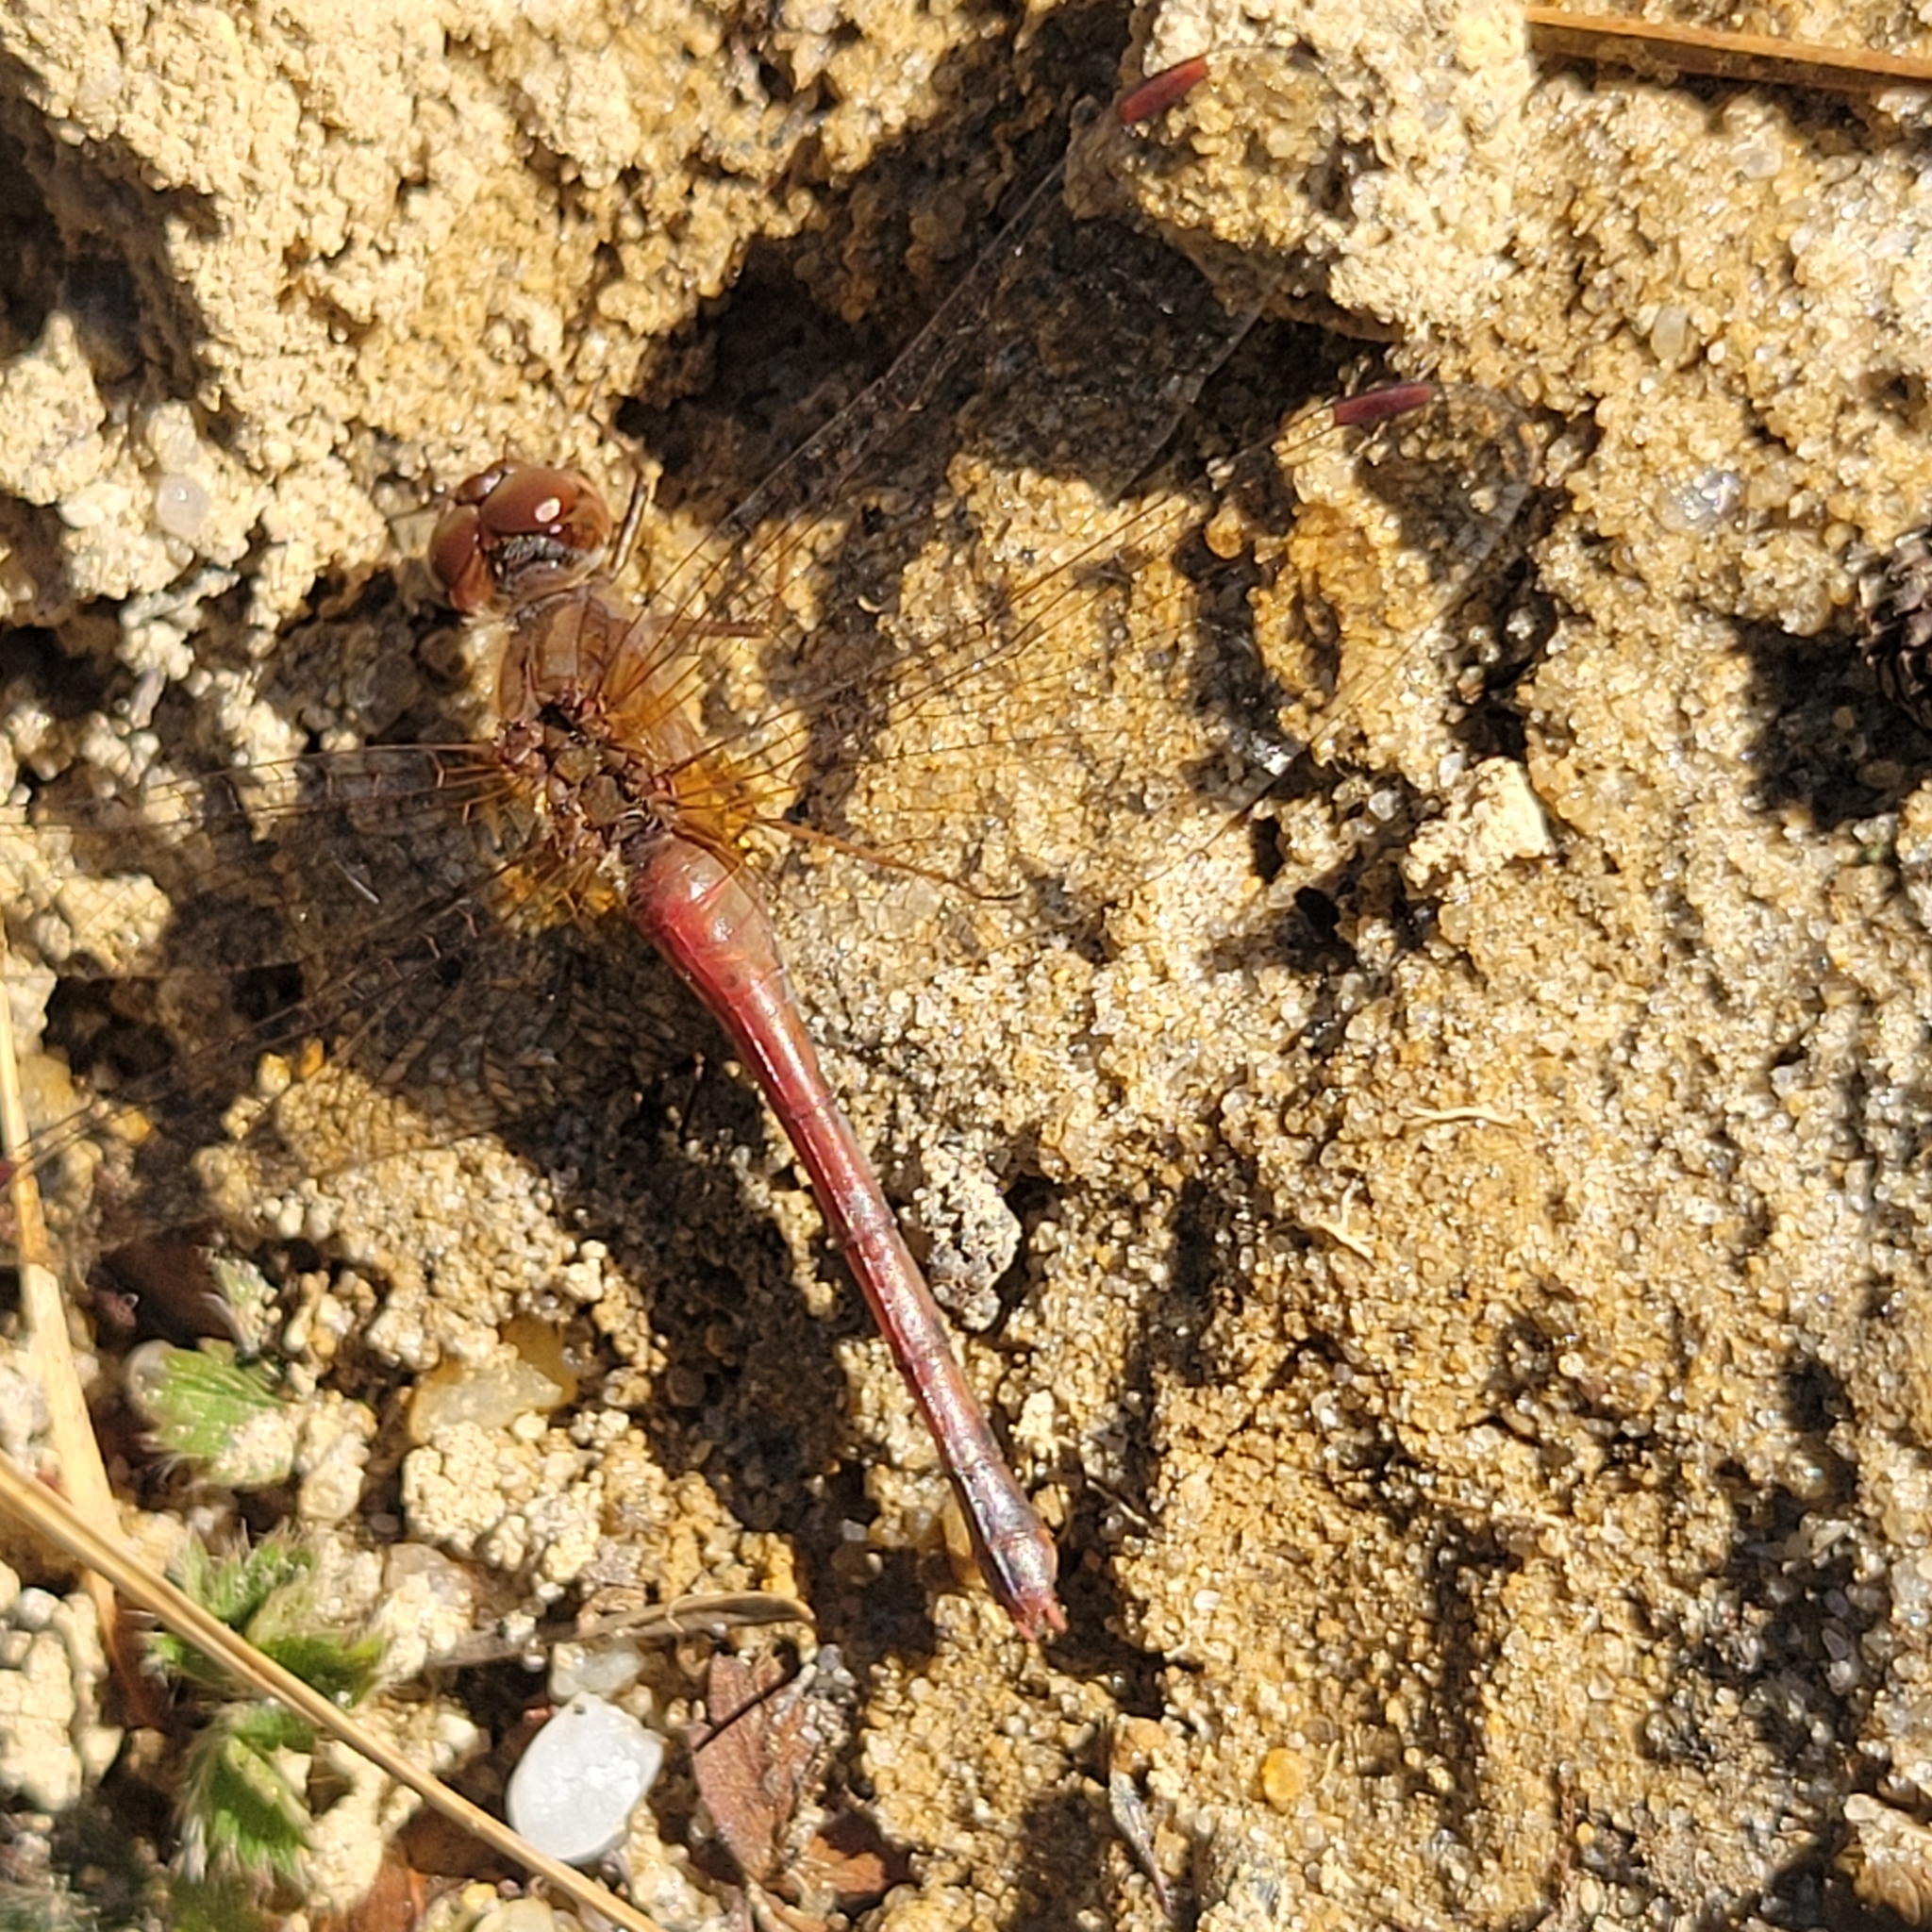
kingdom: Animalia
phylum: Arthropoda
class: Insecta
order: Odonata
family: Libellulidae
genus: Sympetrum
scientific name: Sympetrum vicinum
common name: Autumn meadowhawk
